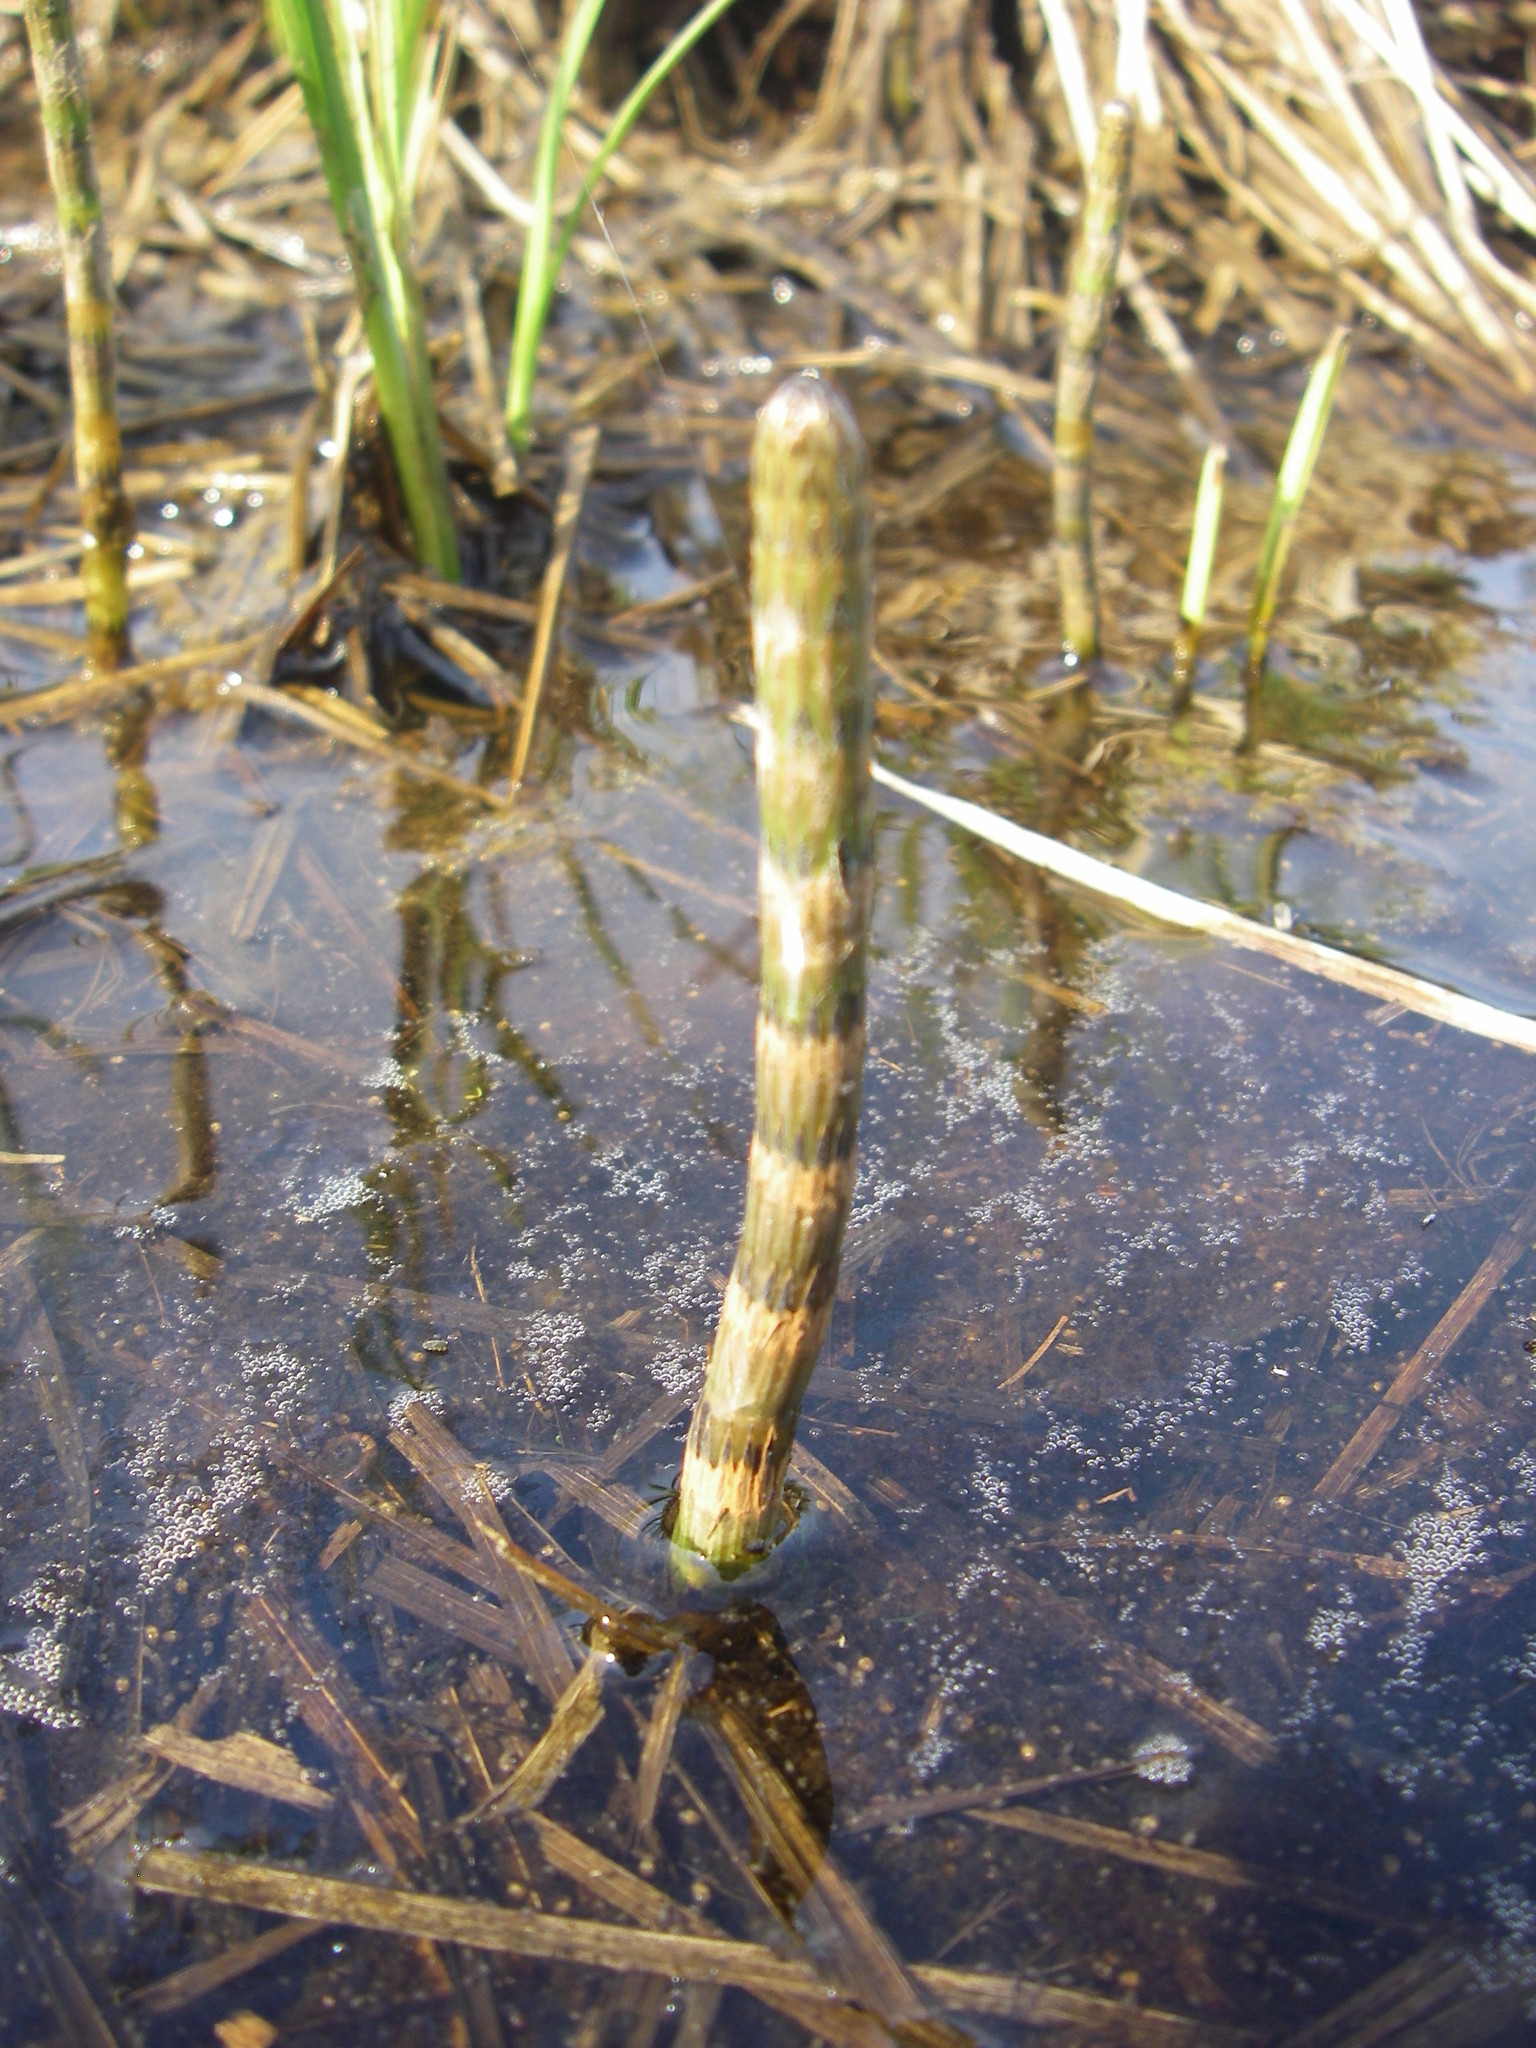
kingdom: Plantae
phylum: Tracheophyta
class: Polypodiopsida
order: Equisetales
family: Equisetaceae
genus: Equisetum
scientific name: Equisetum fluviatile
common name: Water horsetail
